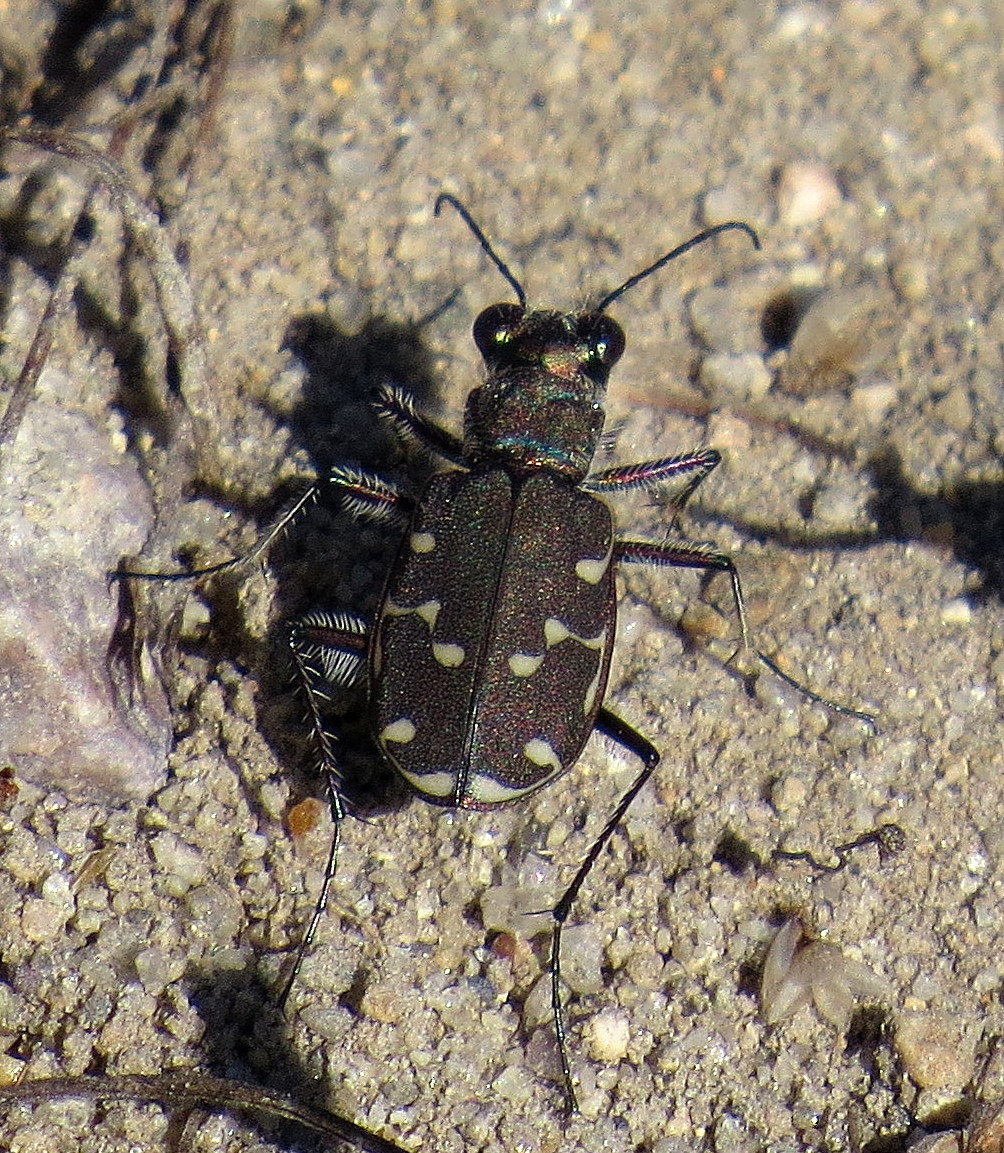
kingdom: Animalia
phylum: Arthropoda
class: Insecta
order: Coleoptera
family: Carabidae
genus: Cicindela
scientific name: Cicindela duodecimguttata
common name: Twelve-spotted tiger beetle
